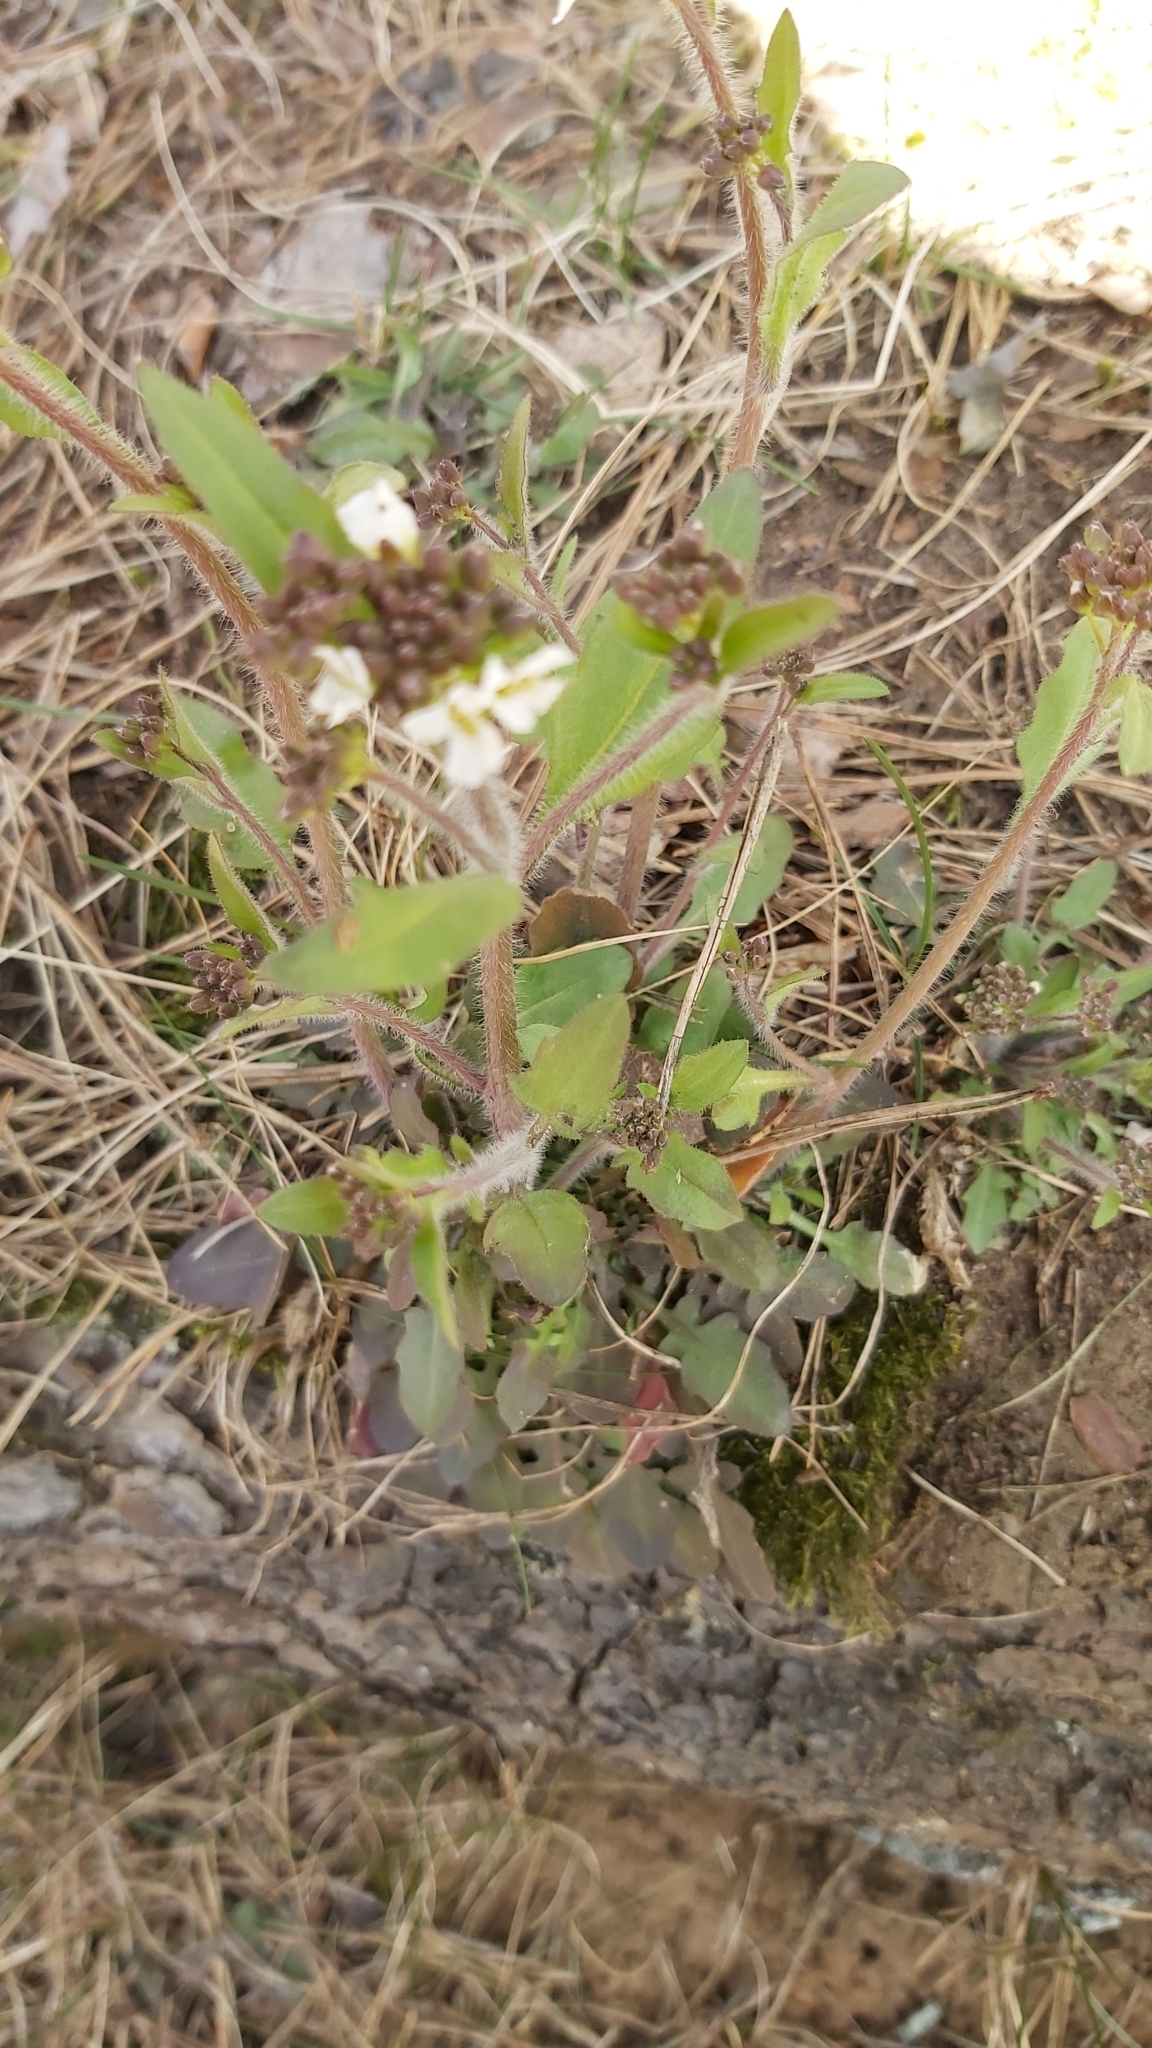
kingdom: Plantae
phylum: Tracheophyta
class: Magnoliopsida
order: Brassicales
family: Brassicaceae
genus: Arabidopsis
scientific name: Arabidopsis arenosa
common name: Sand rock-cress
